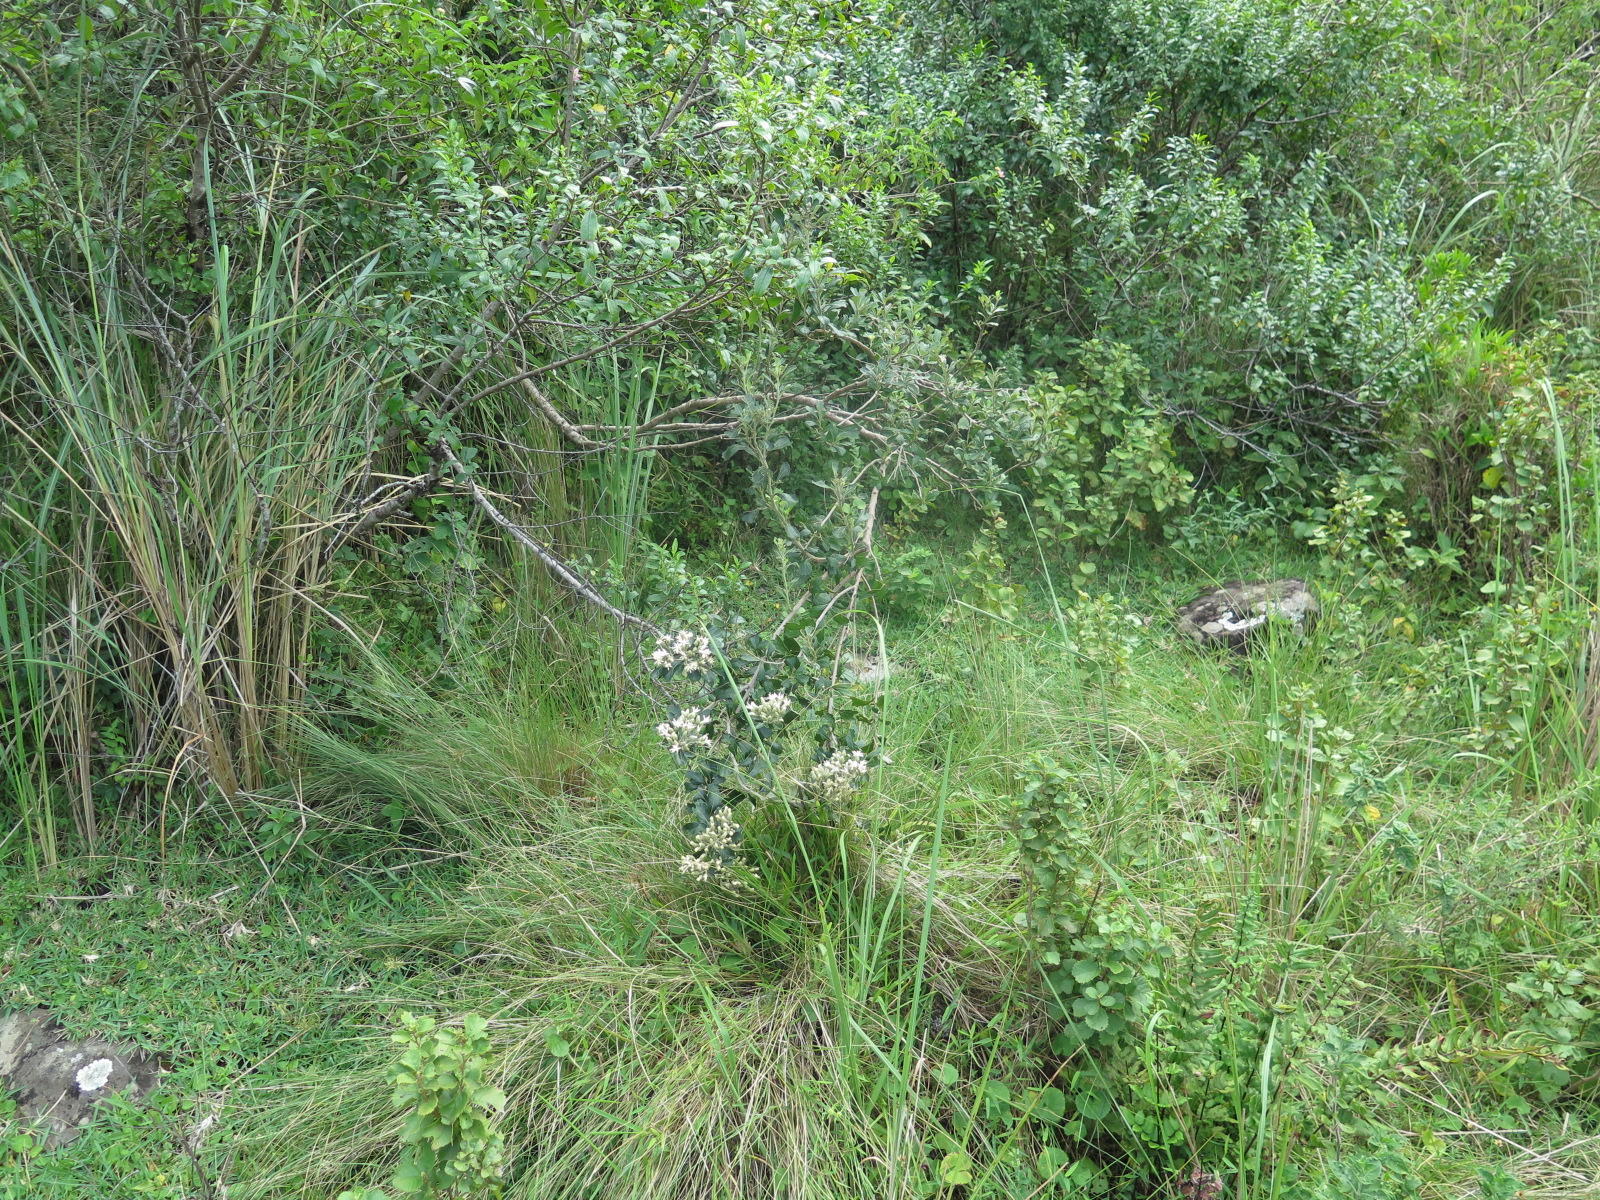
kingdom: Plantae
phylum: Tracheophyta
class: Magnoliopsida
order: Asterales
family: Asteraceae
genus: Gymnanthemum
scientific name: Gymnanthemum capense
